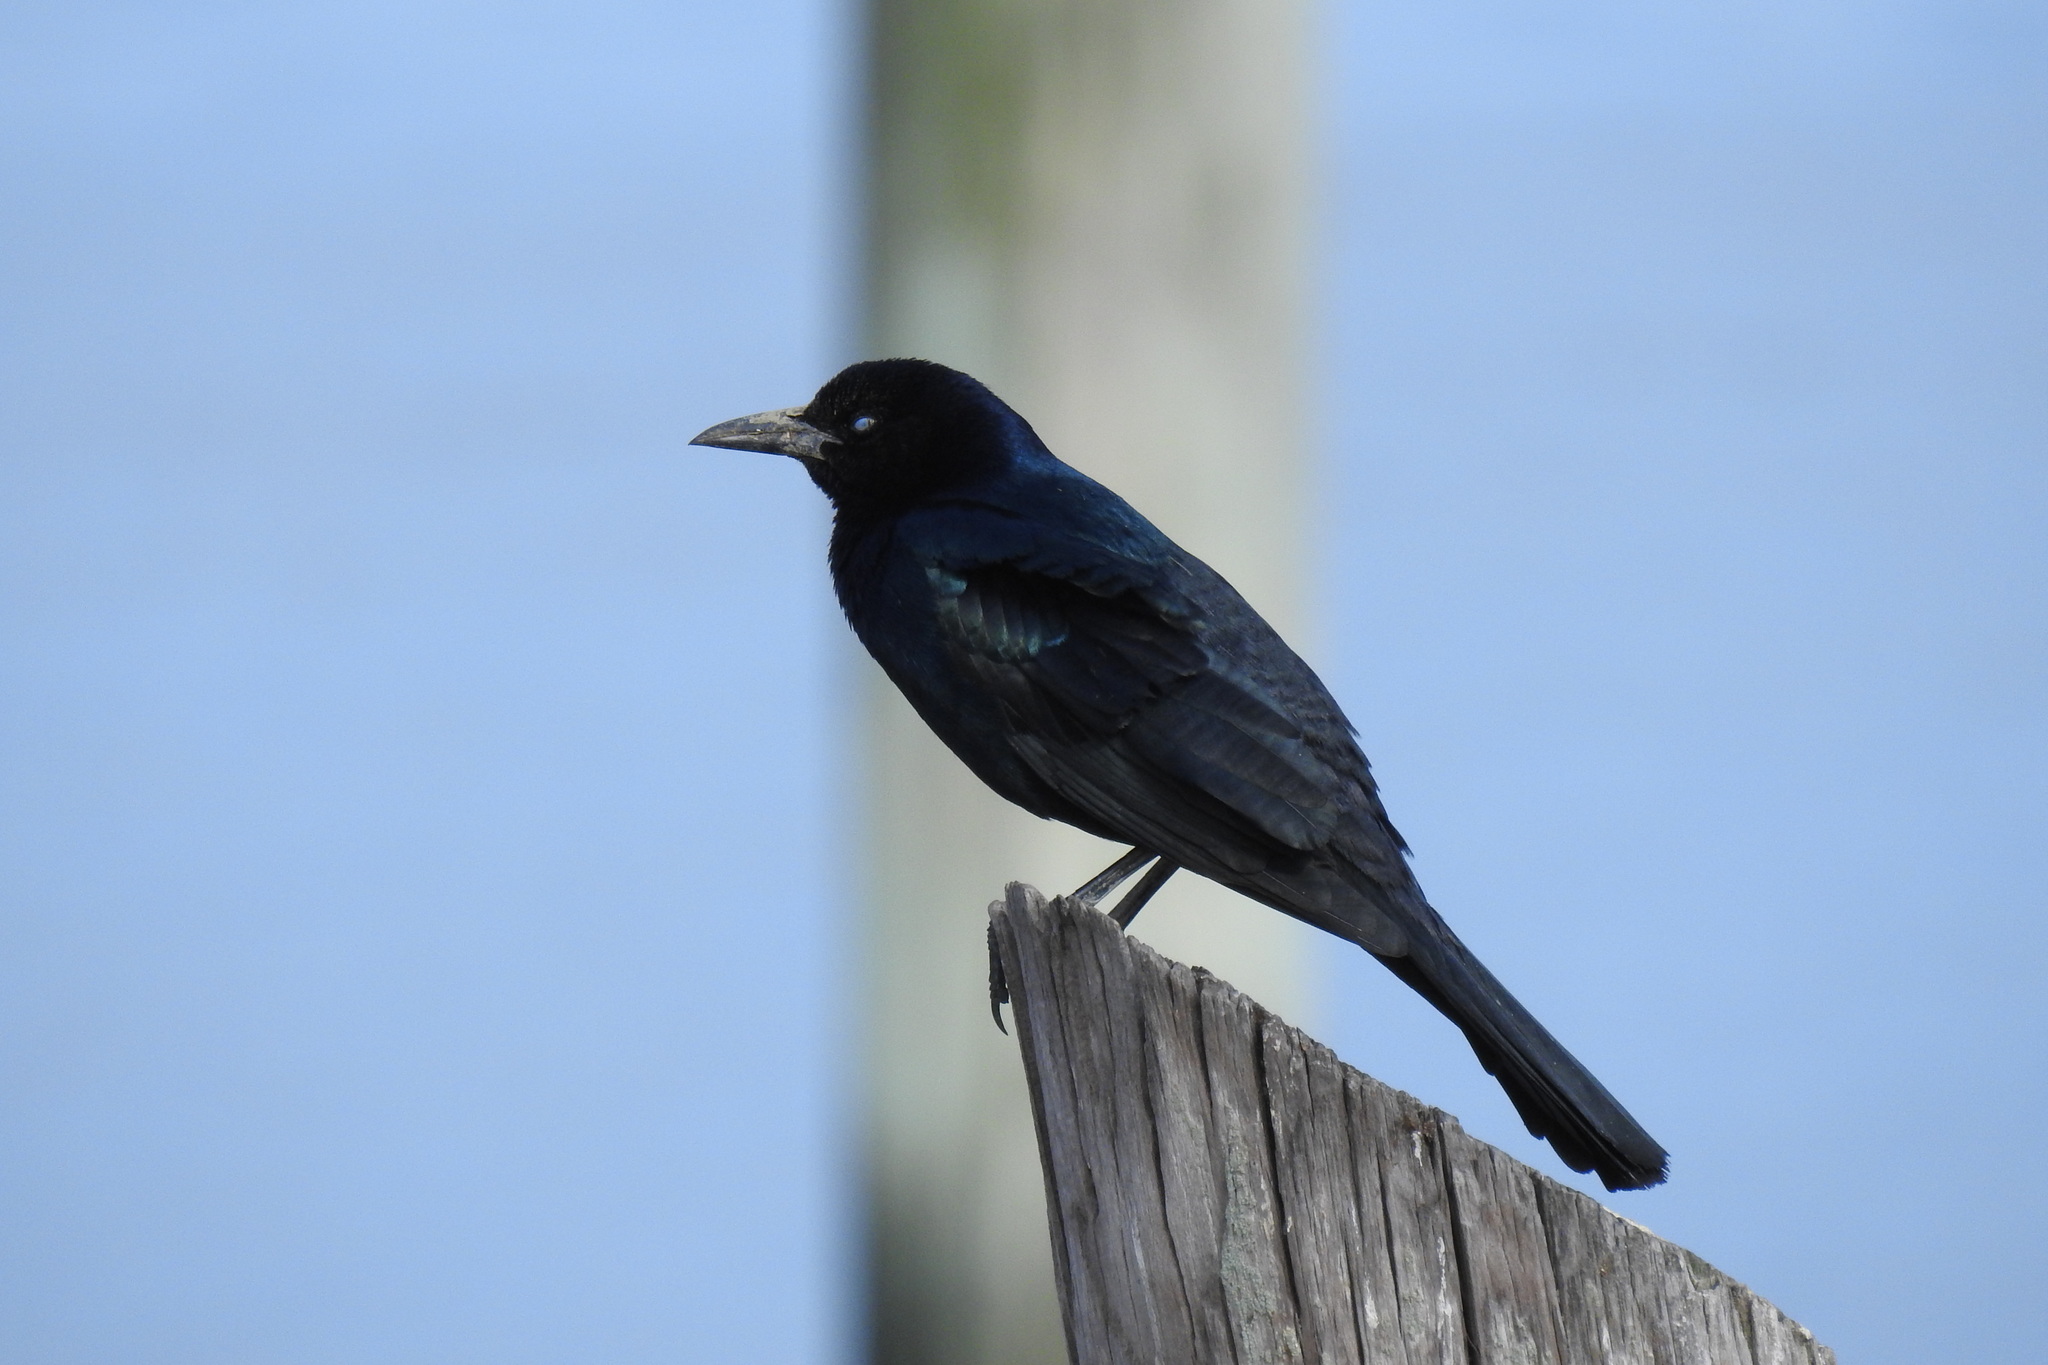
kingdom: Animalia
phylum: Chordata
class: Aves
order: Passeriformes
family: Icteridae
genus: Quiscalus
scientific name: Quiscalus major
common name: Boat-tailed grackle
